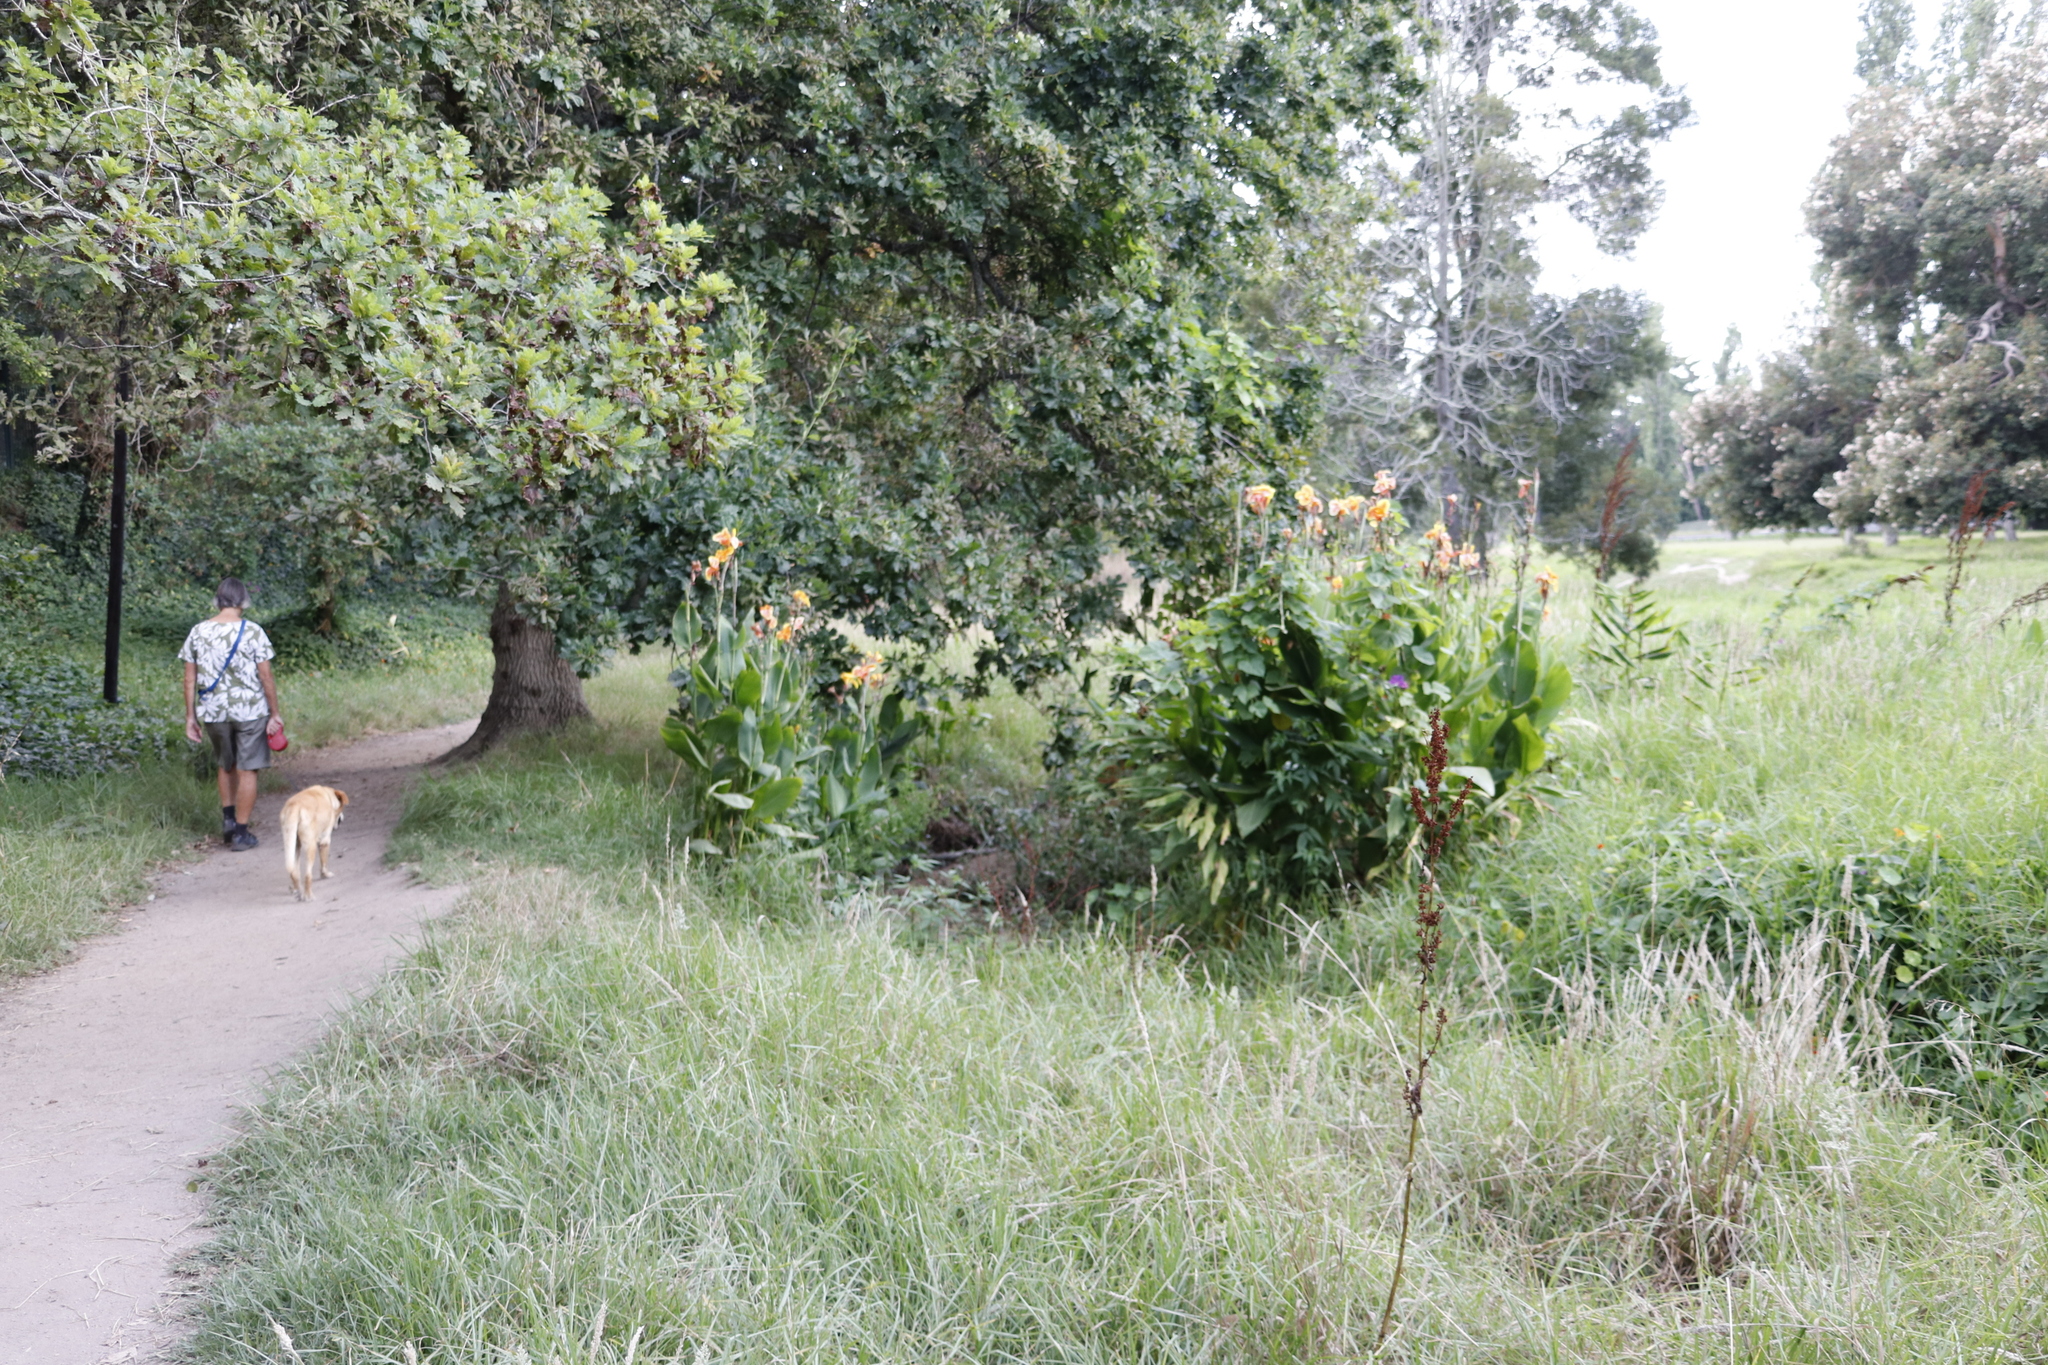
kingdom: Plantae
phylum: Tracheophyta
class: Liliopsida
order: Zingiberales
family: Cannaceae
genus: Canna
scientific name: Canna hybrida
